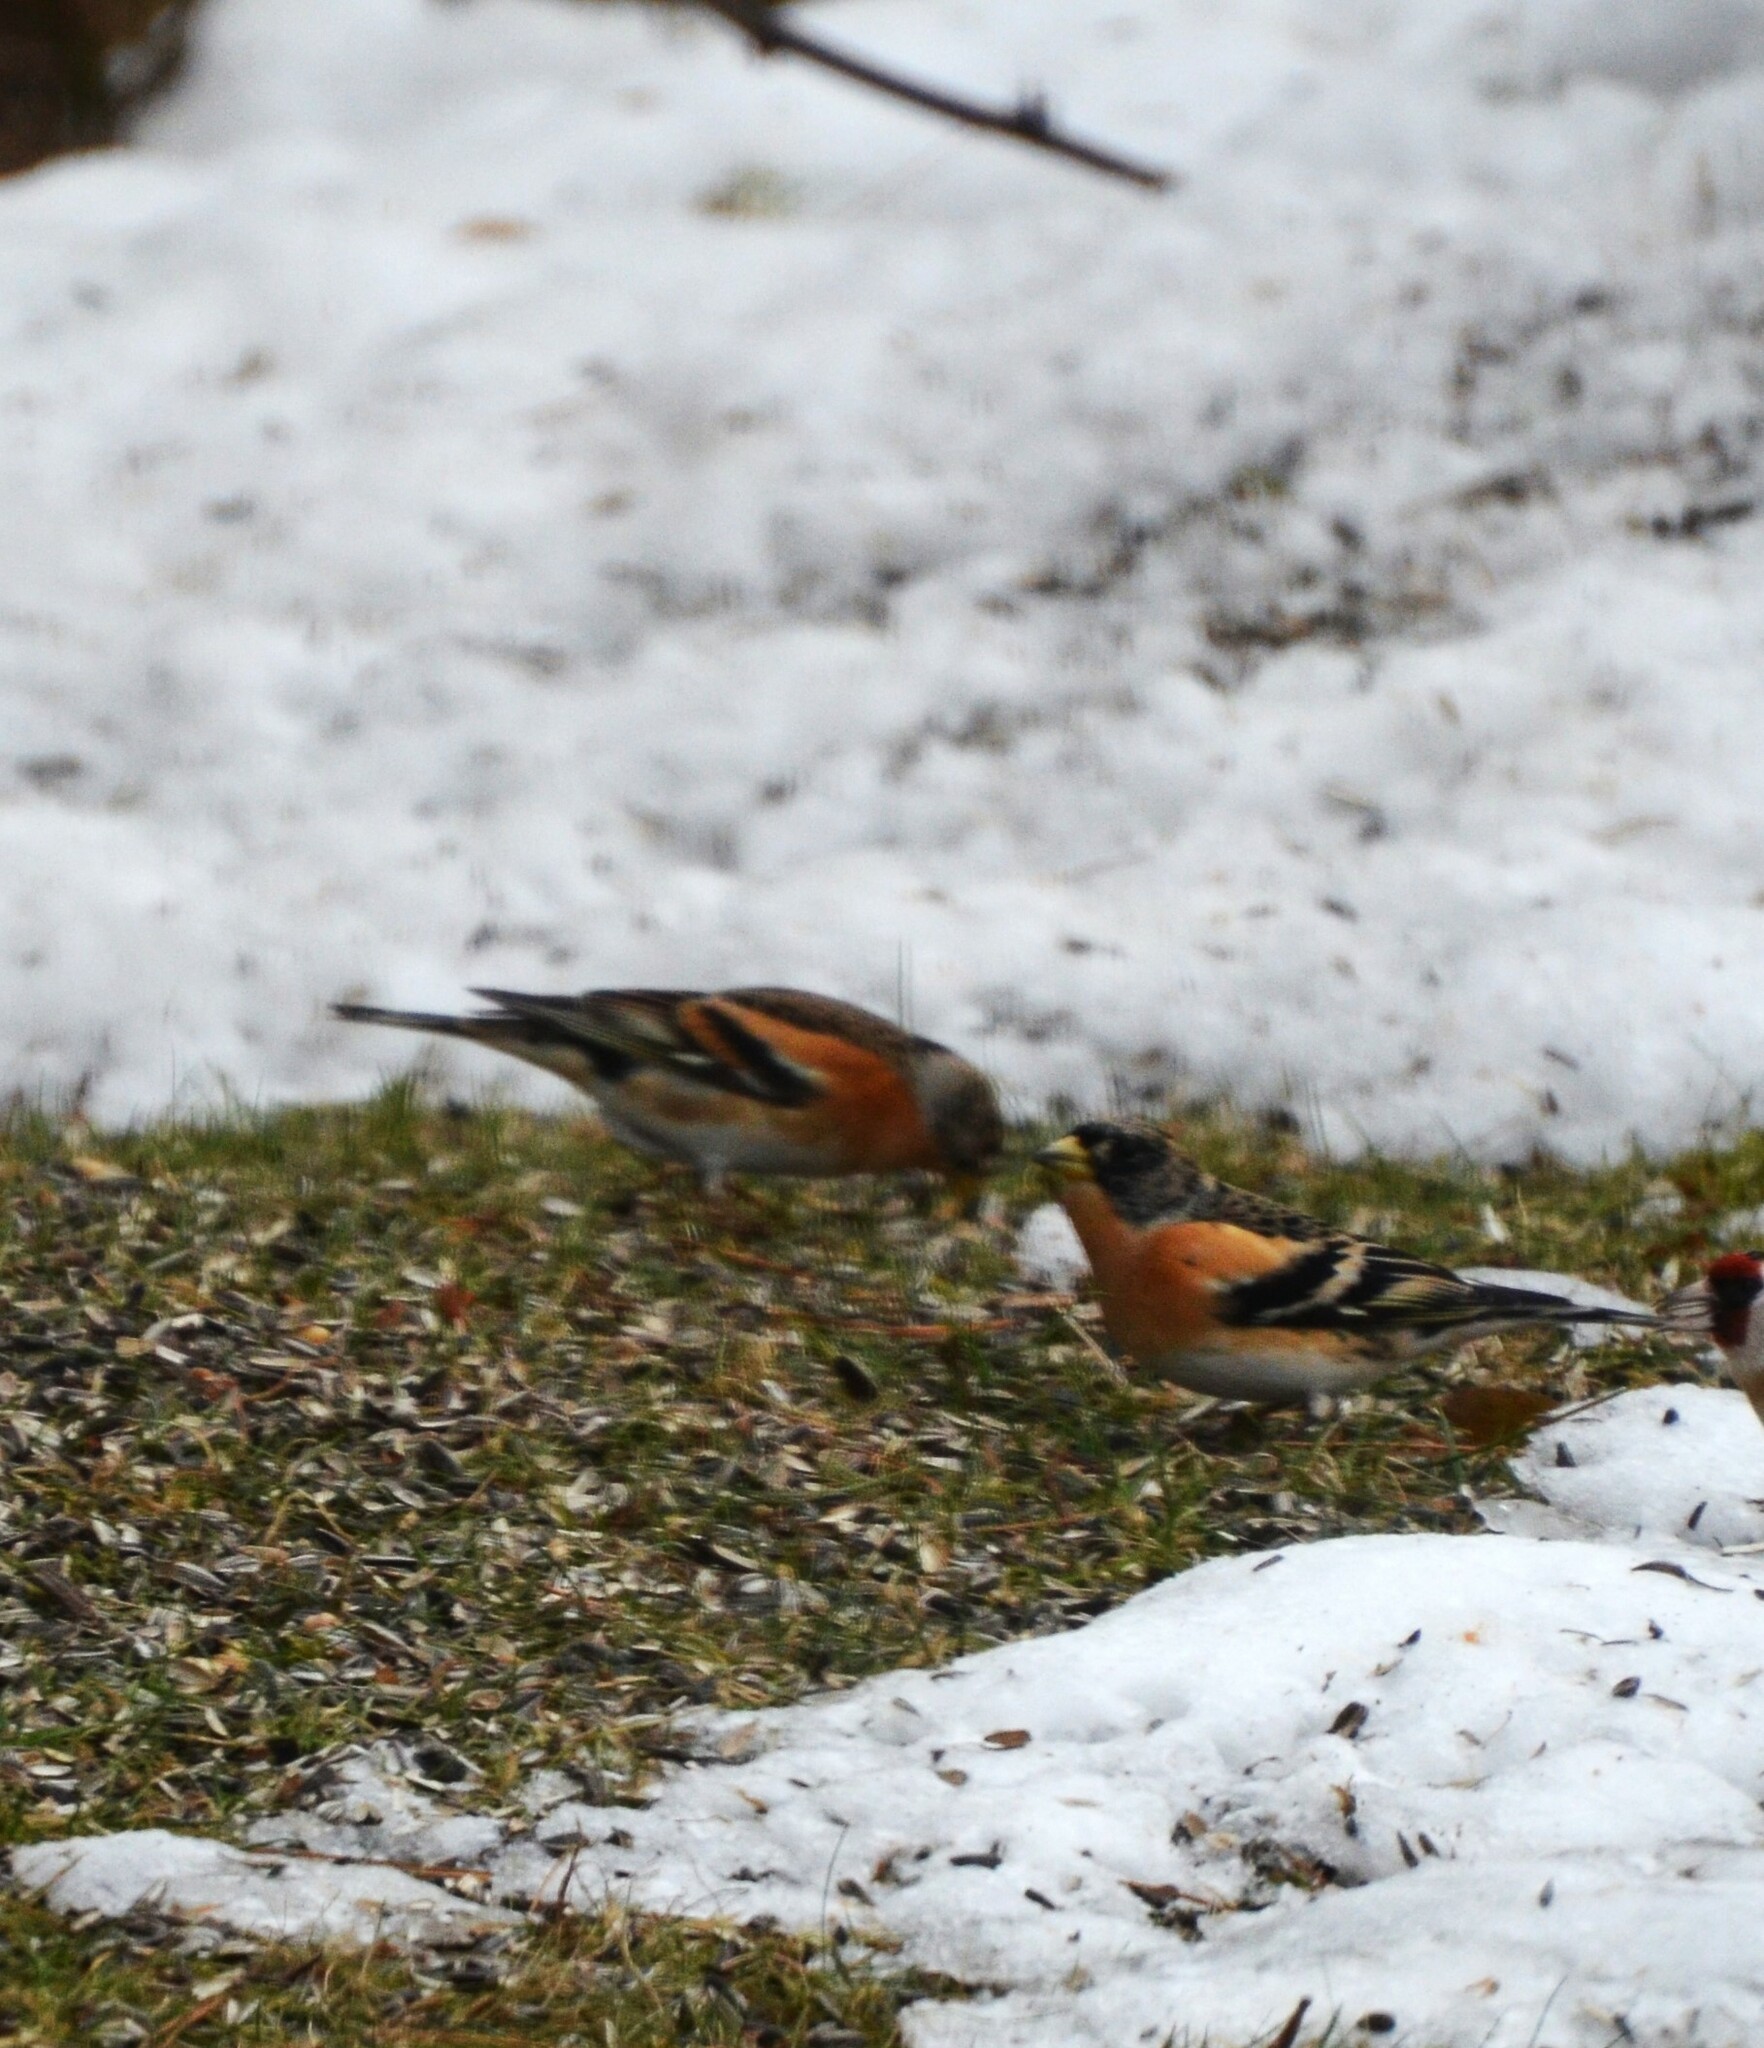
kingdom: Animalia
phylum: Chordata
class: Aves
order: Passeriformes
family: Fringillidae
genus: Fringilla
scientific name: Fringilla montifringilla
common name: Brambling
